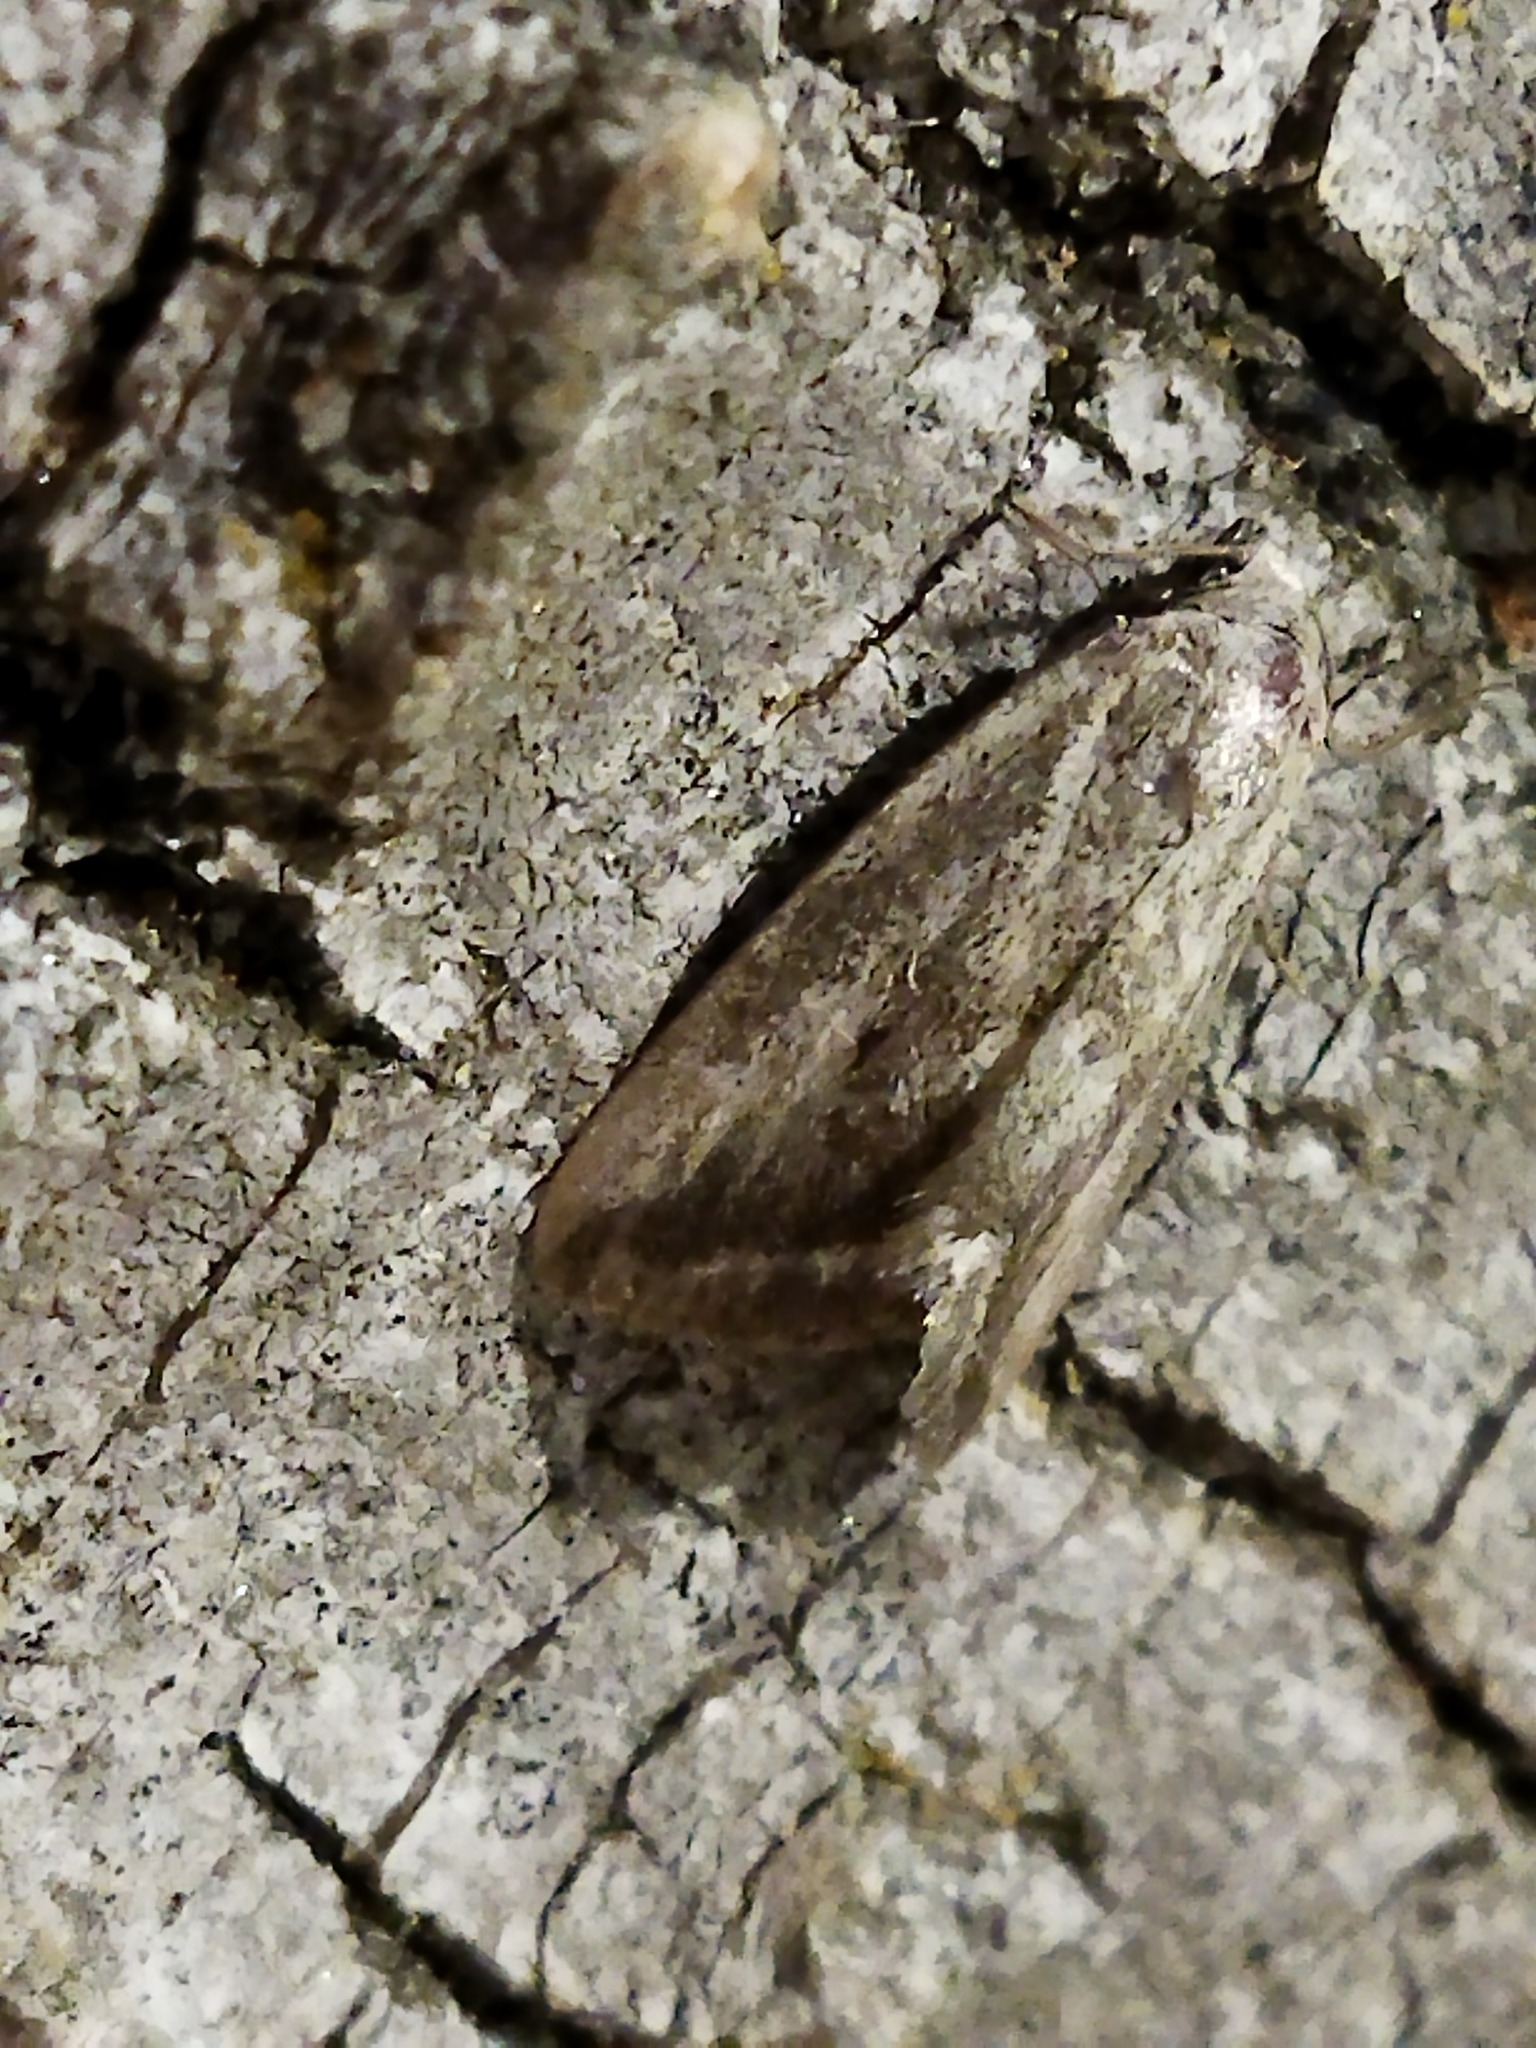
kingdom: Animalia
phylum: Arthropoda
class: Insecta
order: Lepidoptera
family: Noctuidae
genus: Phyllophila
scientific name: Phyllophila obliterata
